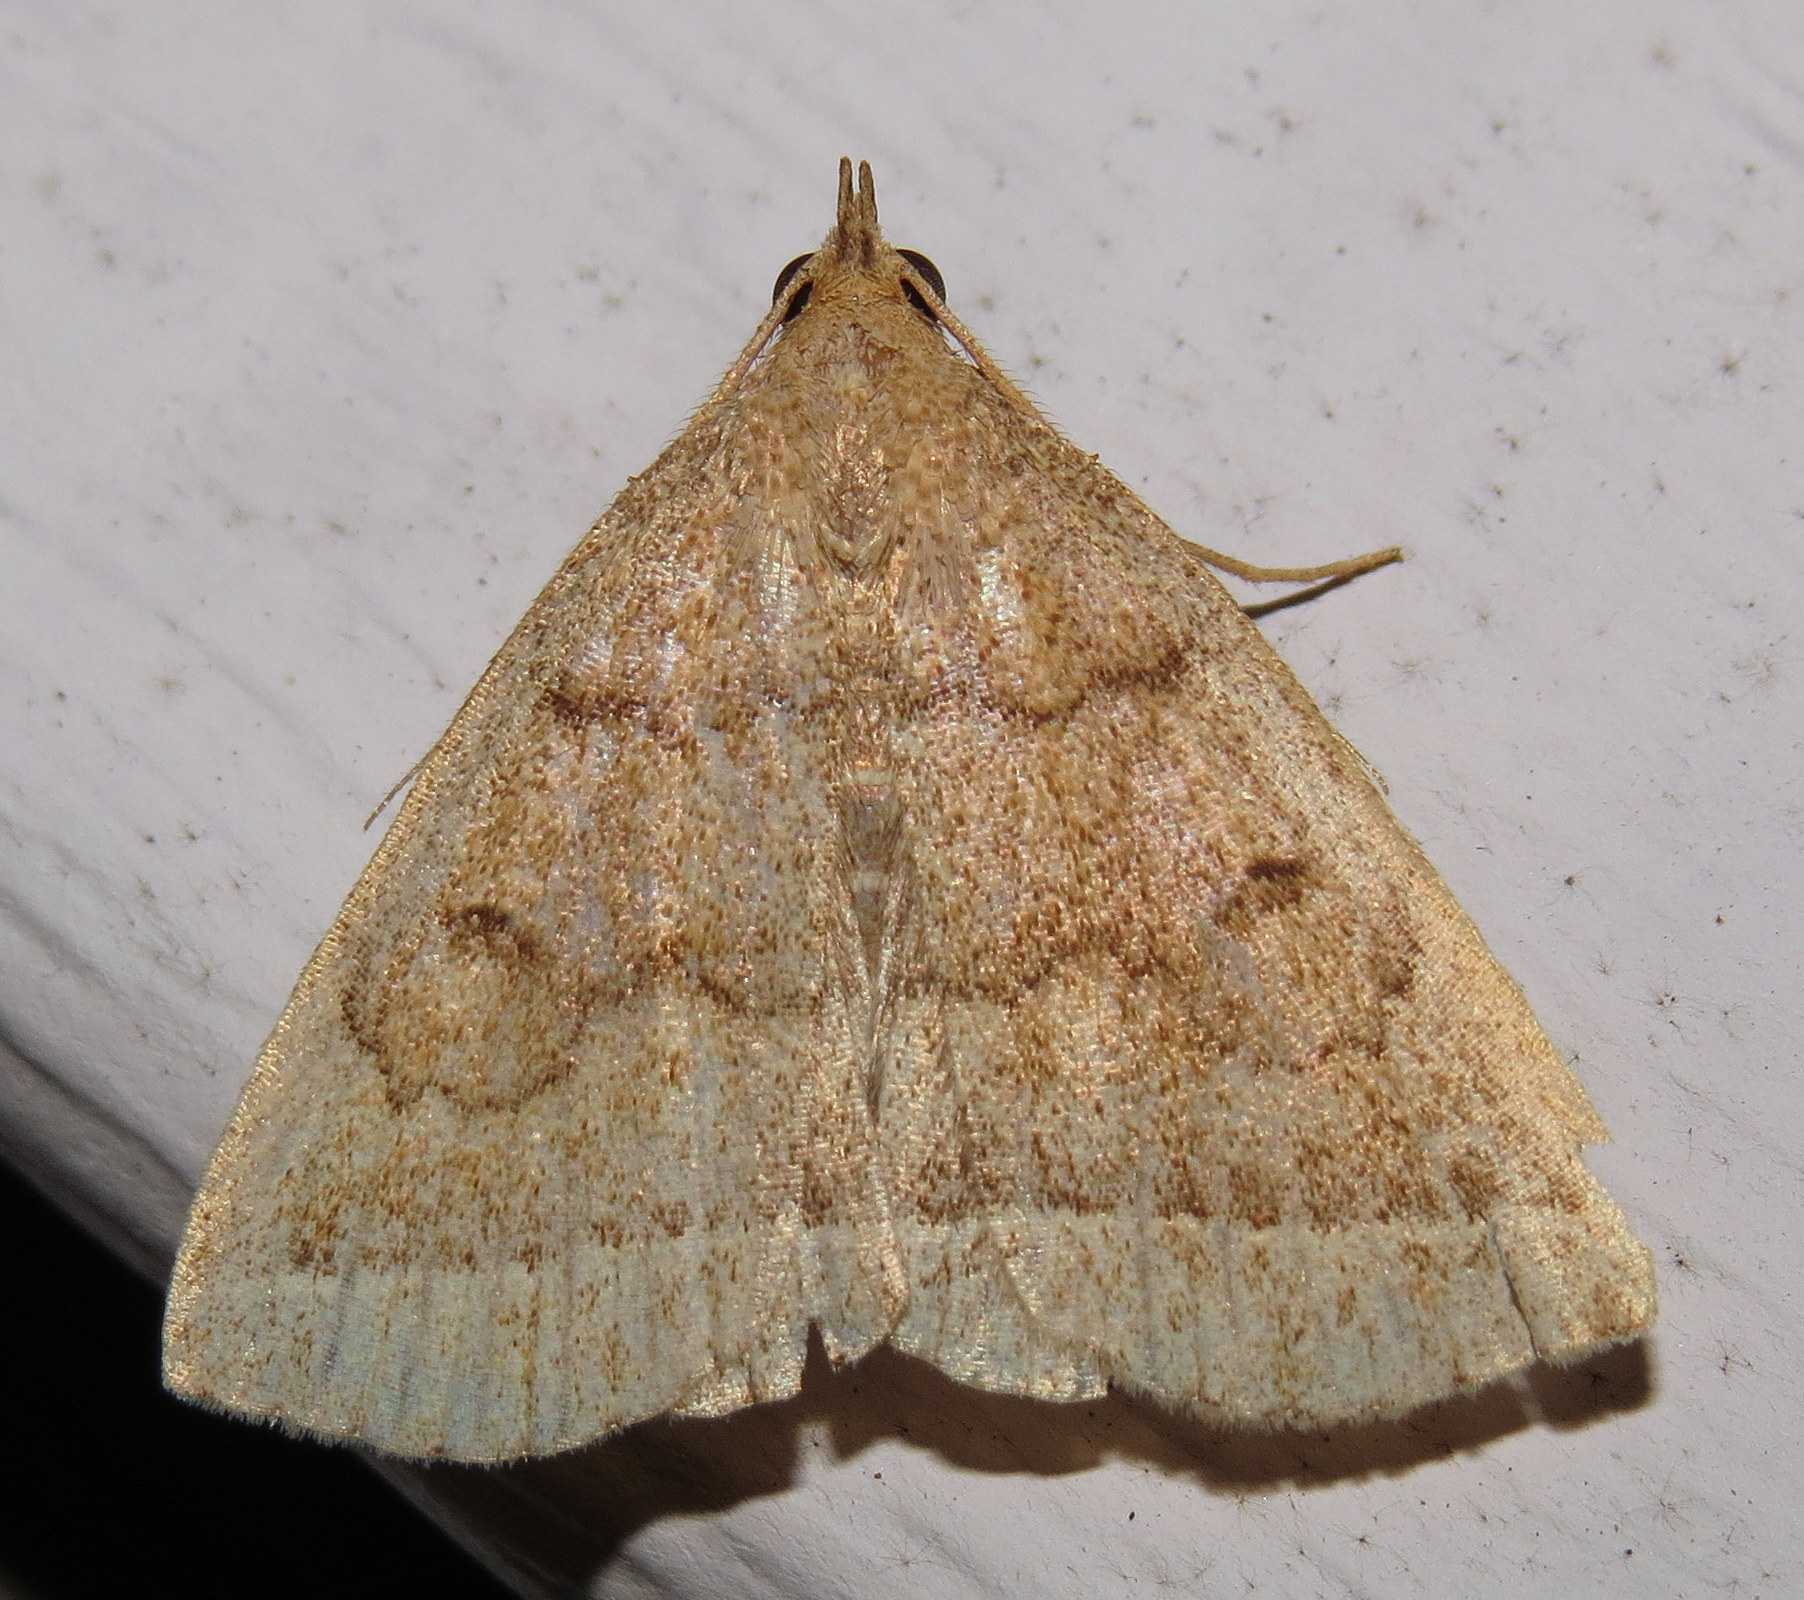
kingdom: Animalia
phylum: Arthropoda
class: Insecta
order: Lepidoptera
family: Erebidae
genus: Zanclognatha
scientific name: Zanclognatha jacchusalis
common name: Yellowish zanclognatha
